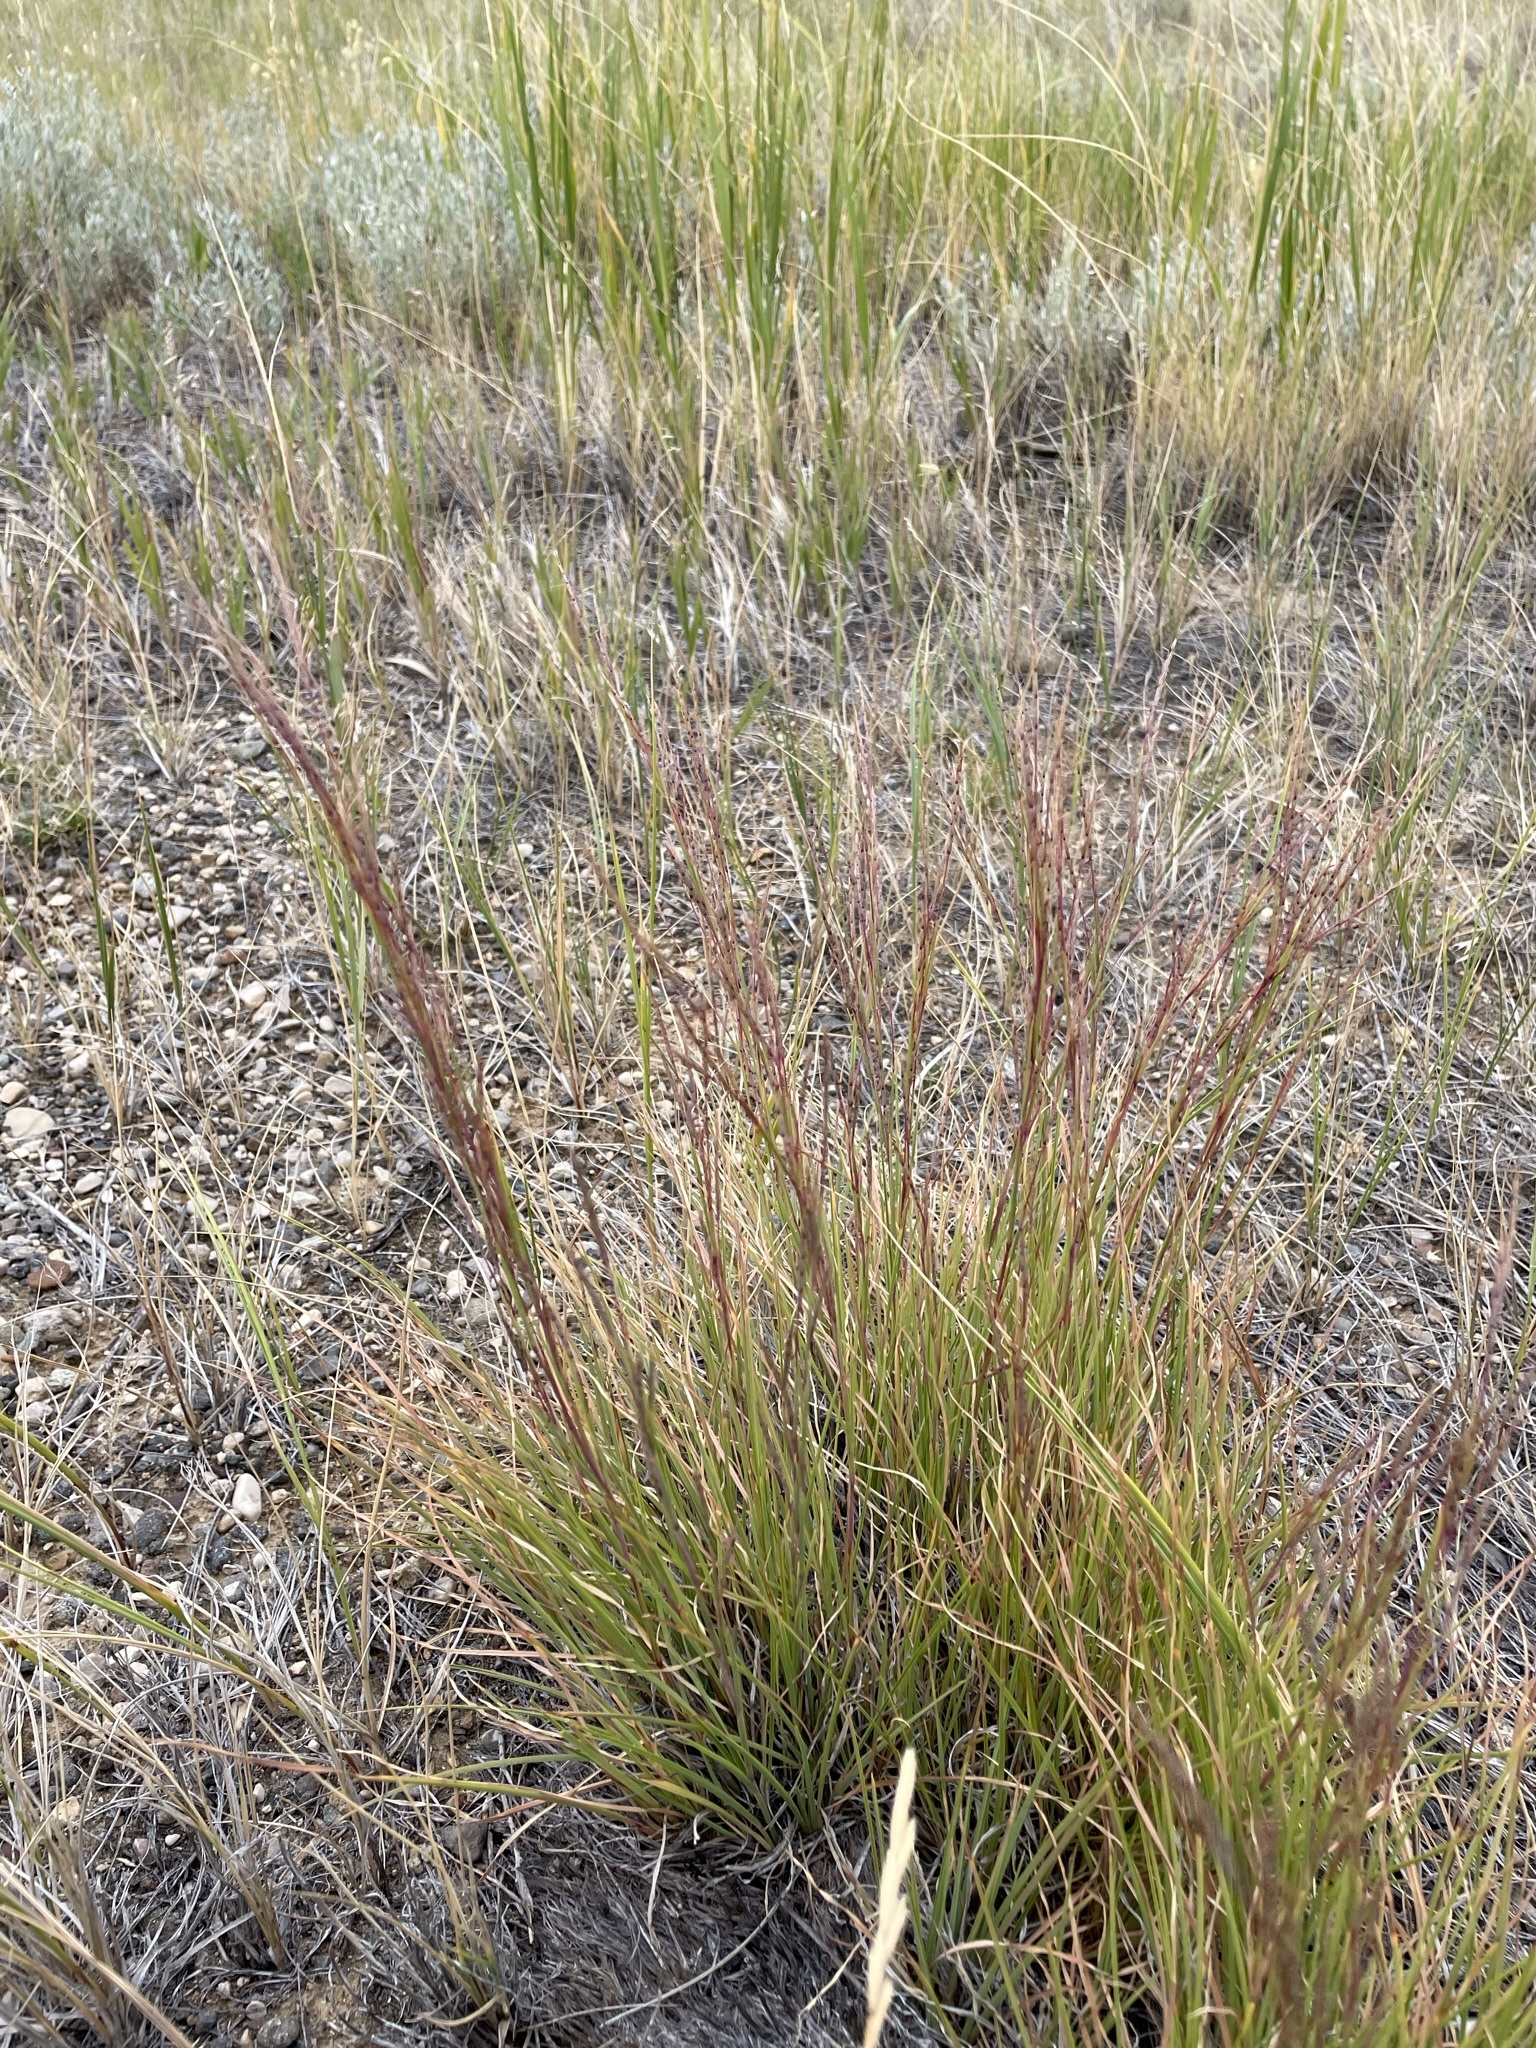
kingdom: Plantae
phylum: Tracheophyta
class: Liliopsida
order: Poales
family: Poaceae
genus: Schizachyrium
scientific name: Schizachyrium scoparium
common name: Little bluestem
